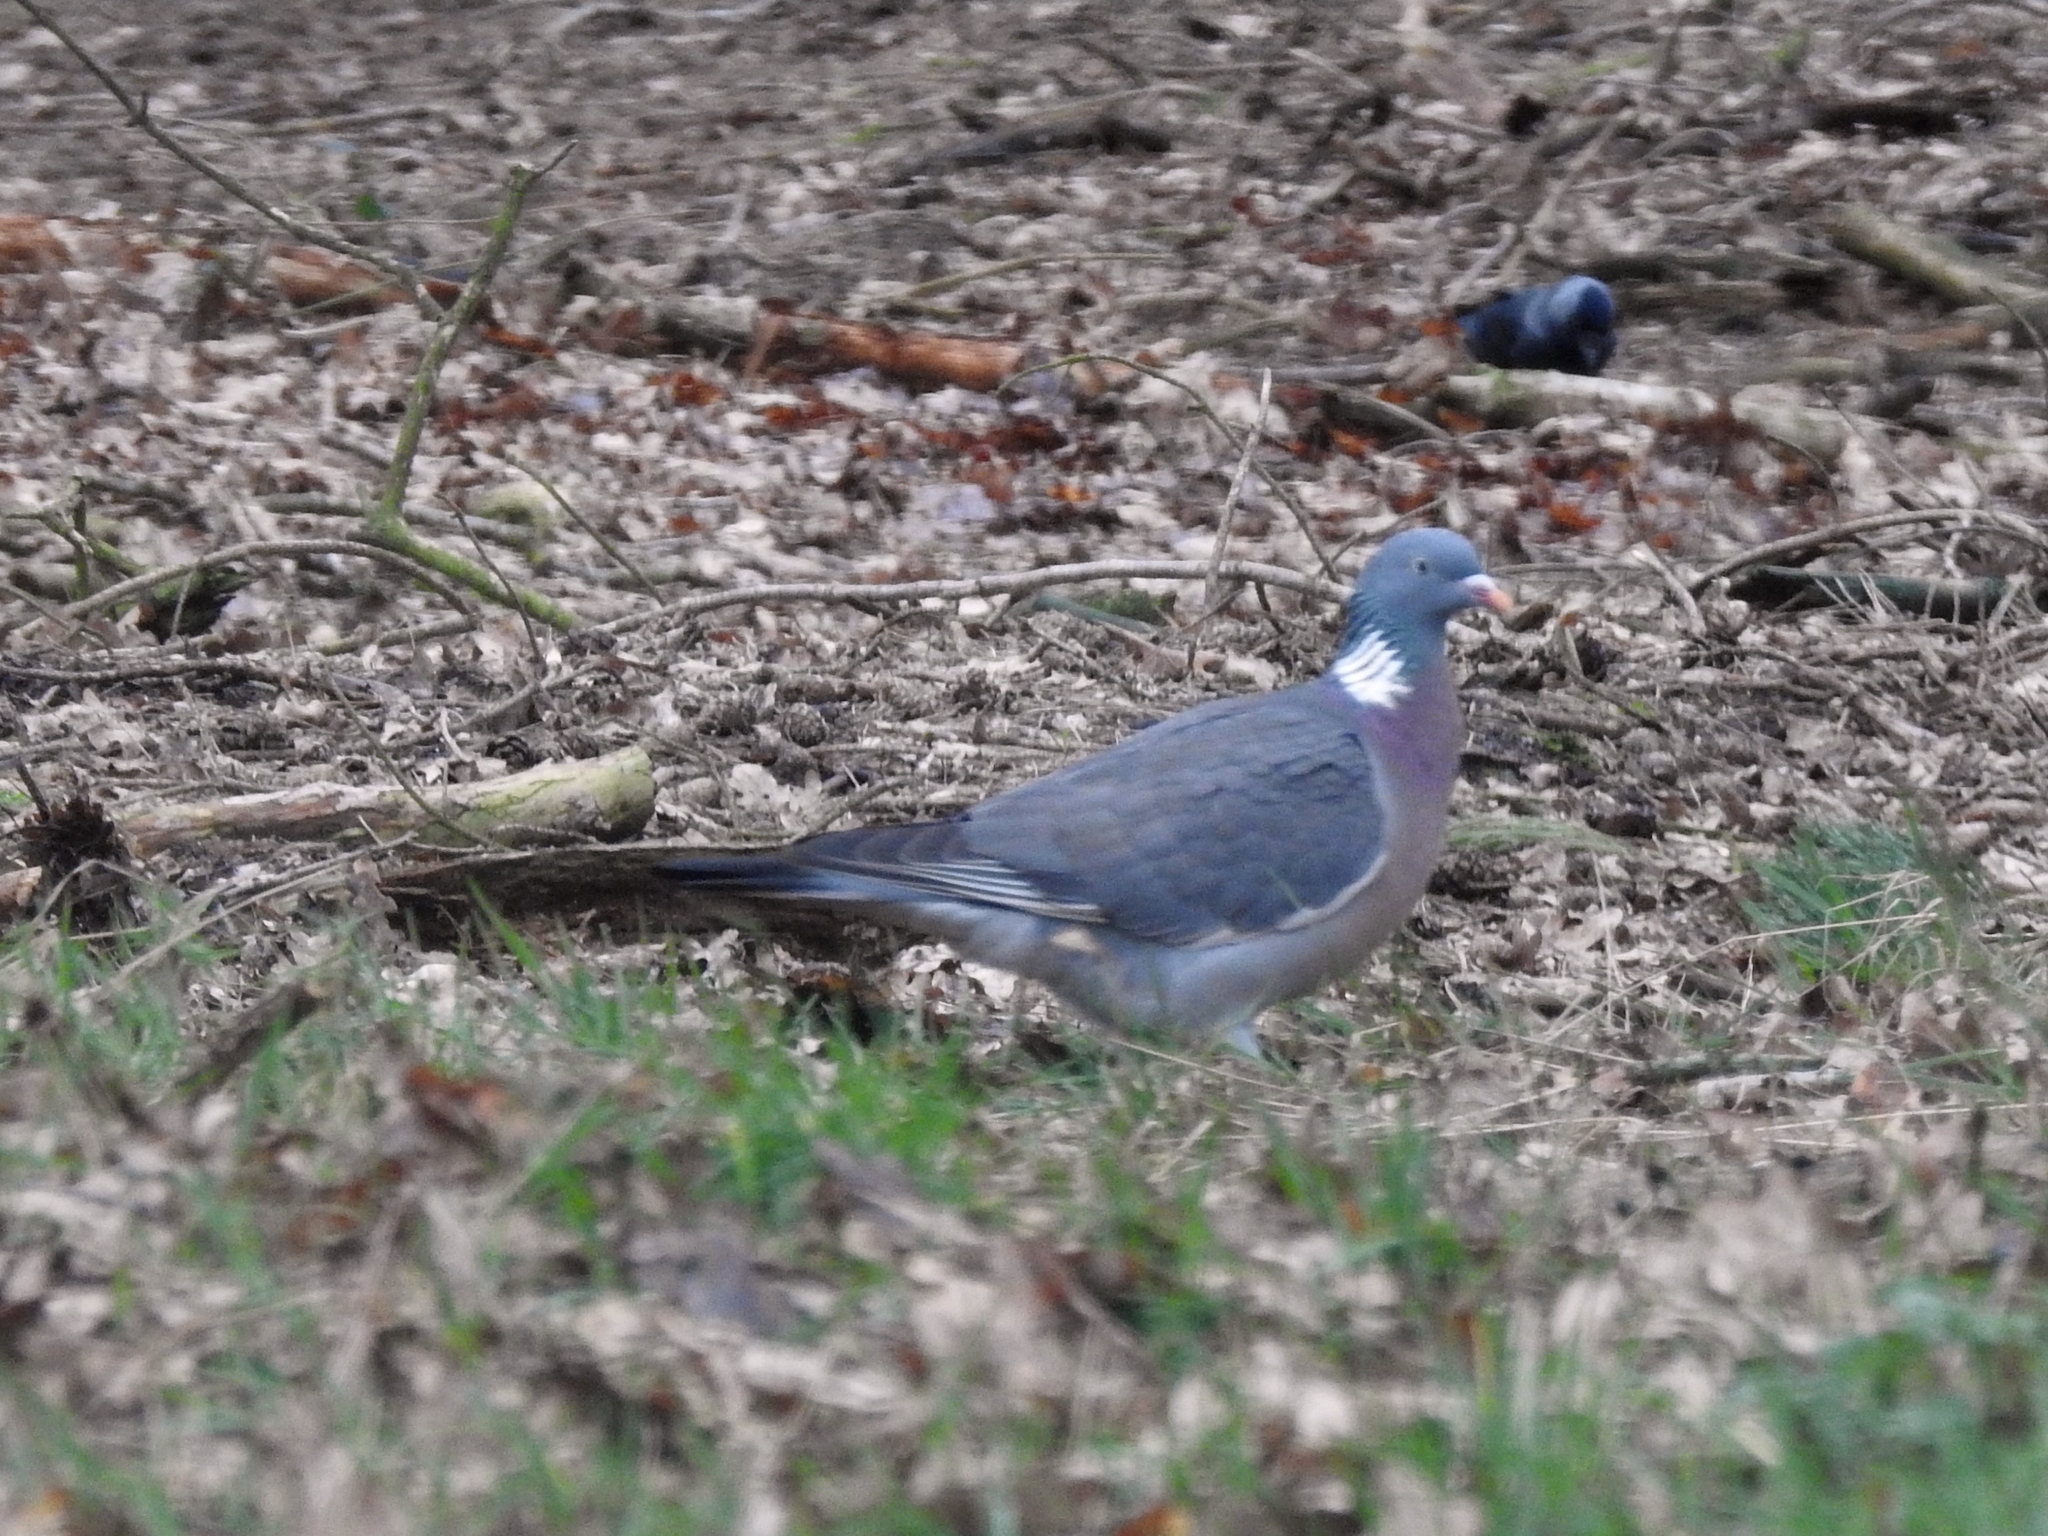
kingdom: Animalia
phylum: Chordata
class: Aves
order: Columbiformes
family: Columbidae
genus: Columba
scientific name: Columba palumbus
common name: Common wood pigeon
